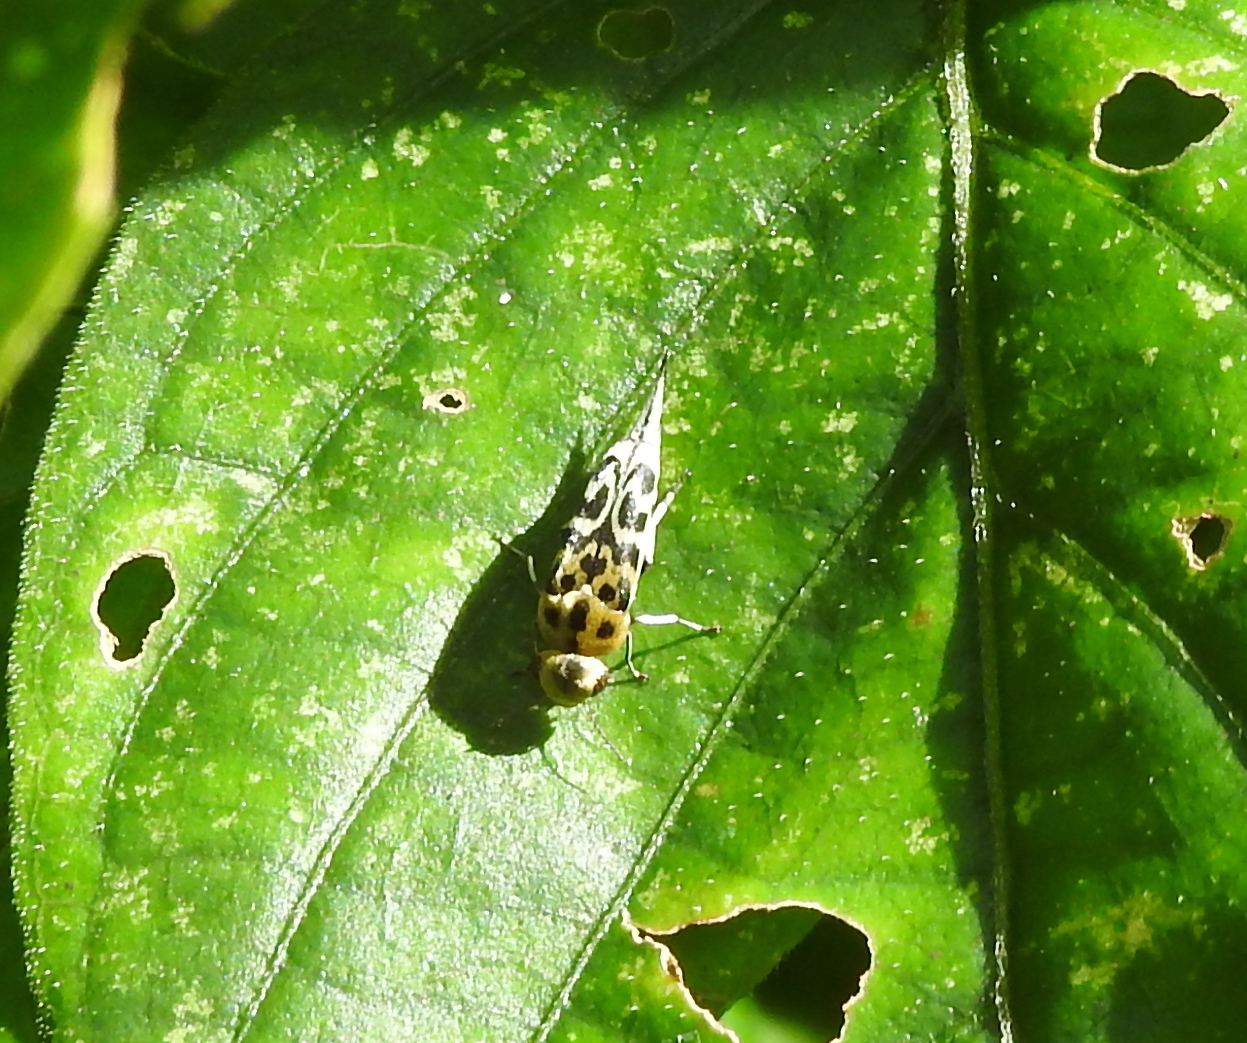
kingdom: Animalia
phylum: Arthropoda
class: Insecta
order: Coleoptera
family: Mordellidae
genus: Glipa
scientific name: Glipa
